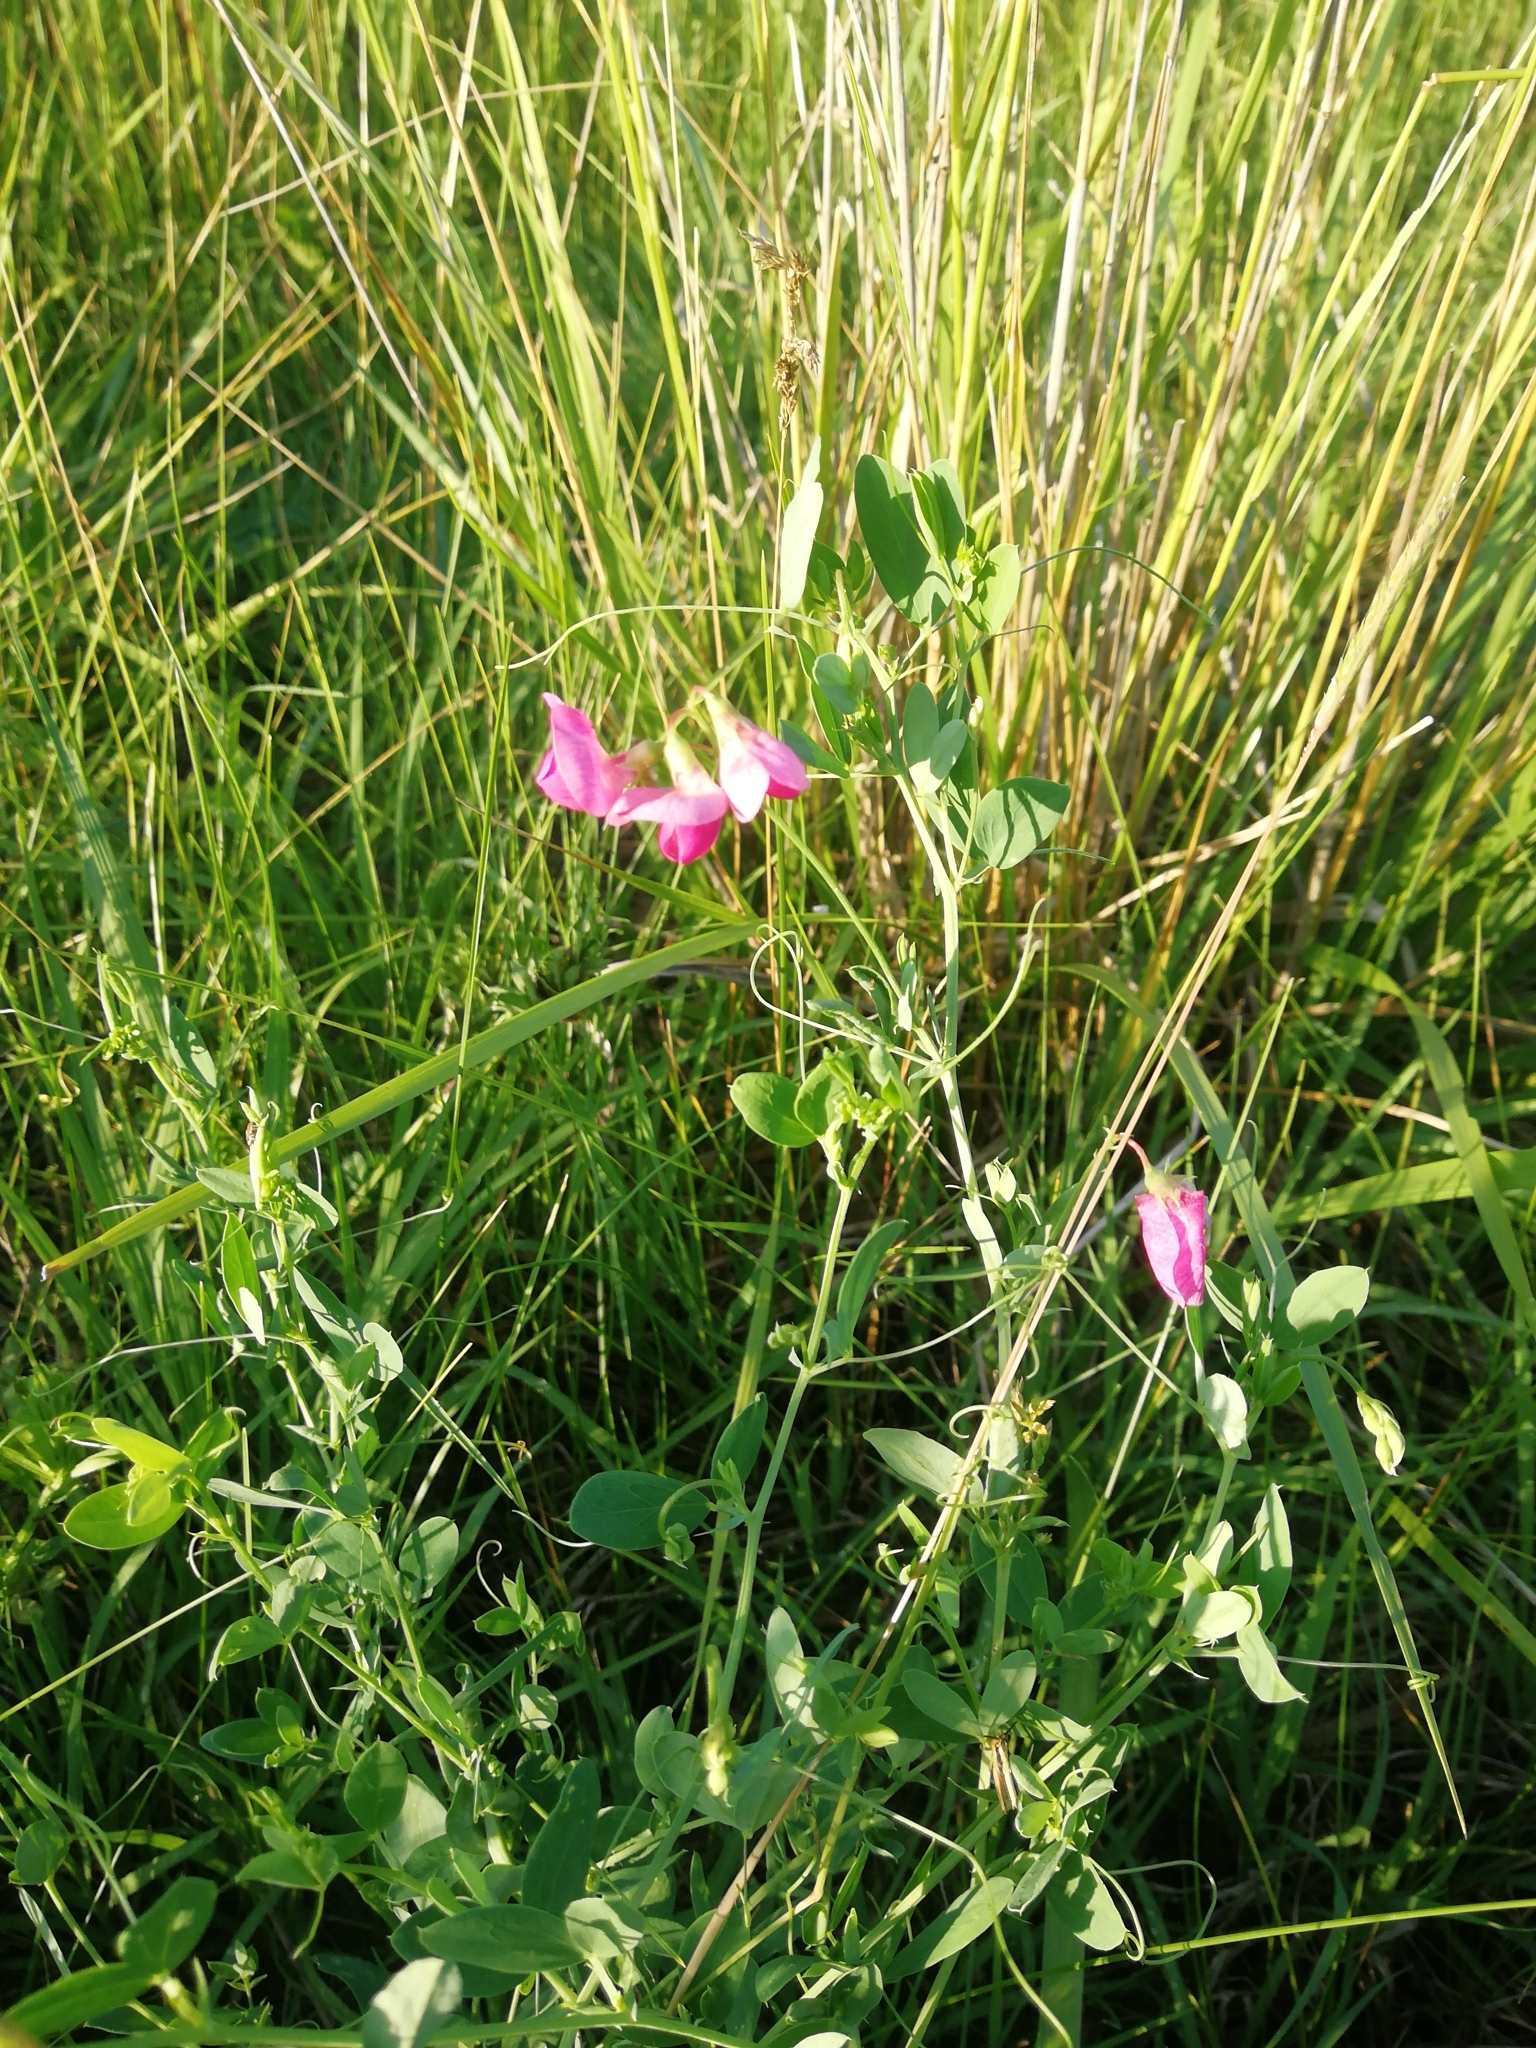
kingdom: Plantae
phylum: Tracheophyta
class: Magnoliopsida
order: Fabales
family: Fabaceae
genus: Lathyrus
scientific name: Lathyrus tuberosus
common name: Tuberous pea
